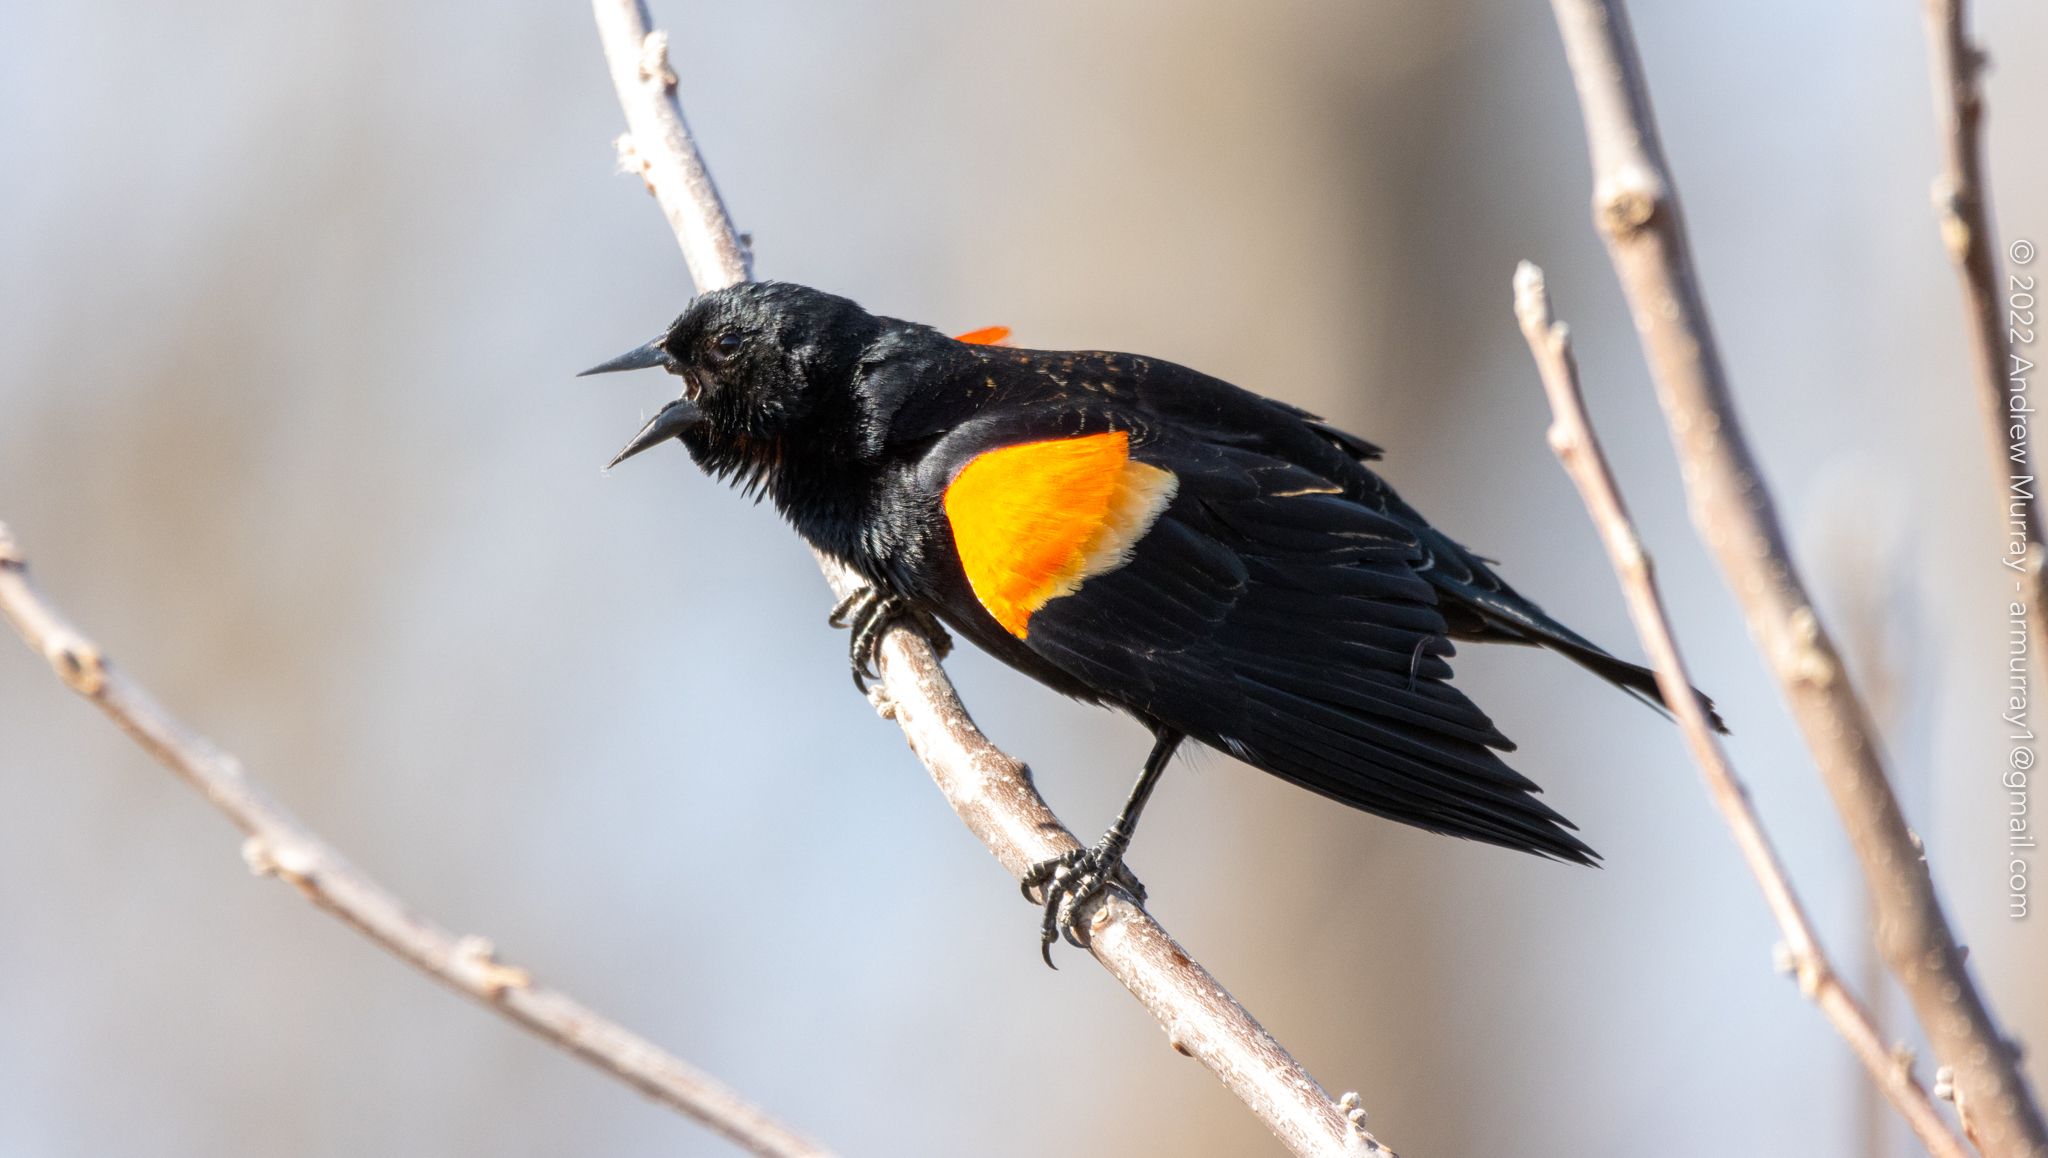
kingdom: Animalia
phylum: Chordata
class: Aves
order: Passeriformes
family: Icteridae
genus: Agelaius
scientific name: Agelaius phoeniceus
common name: Red-winged blackbird
